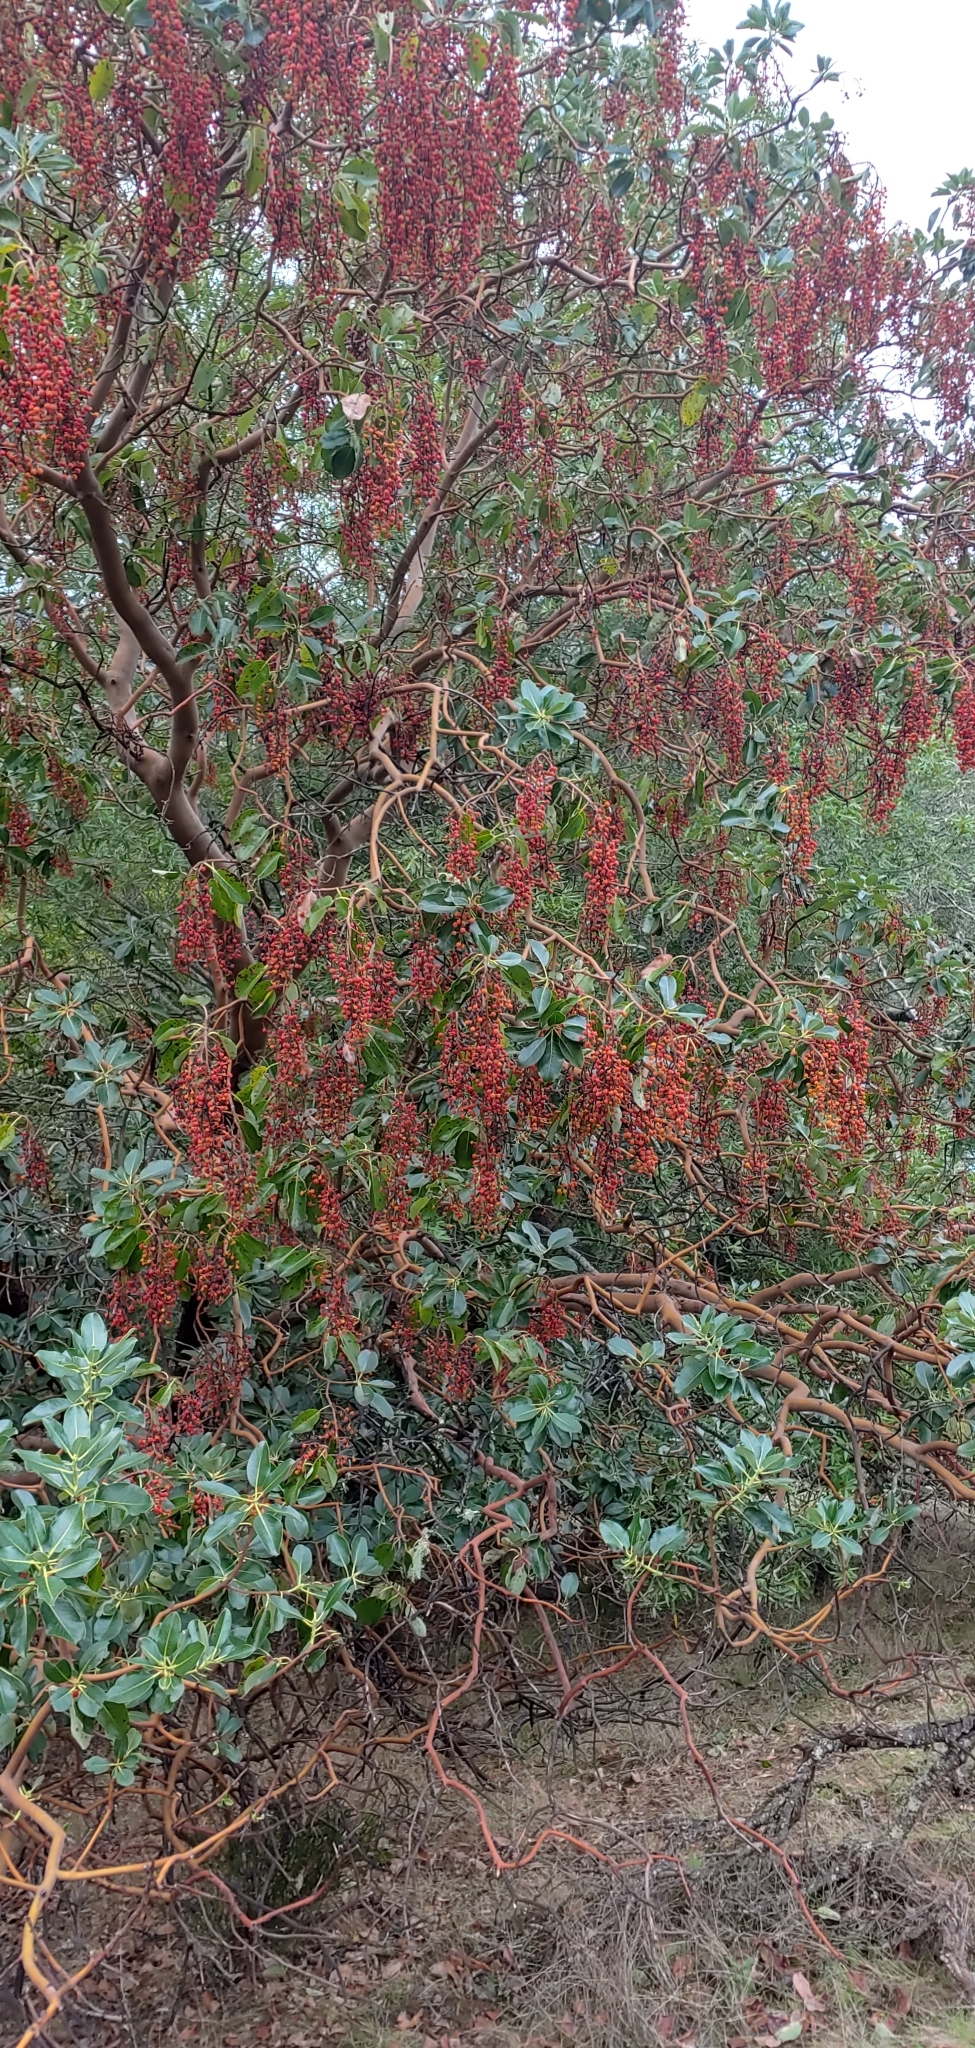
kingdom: Plantae
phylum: Tracheophyta
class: Magnoliopsida
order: Ericales
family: Ericaceae
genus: Arbutus
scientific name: Arbutus menziesii
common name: Pacific madrone
